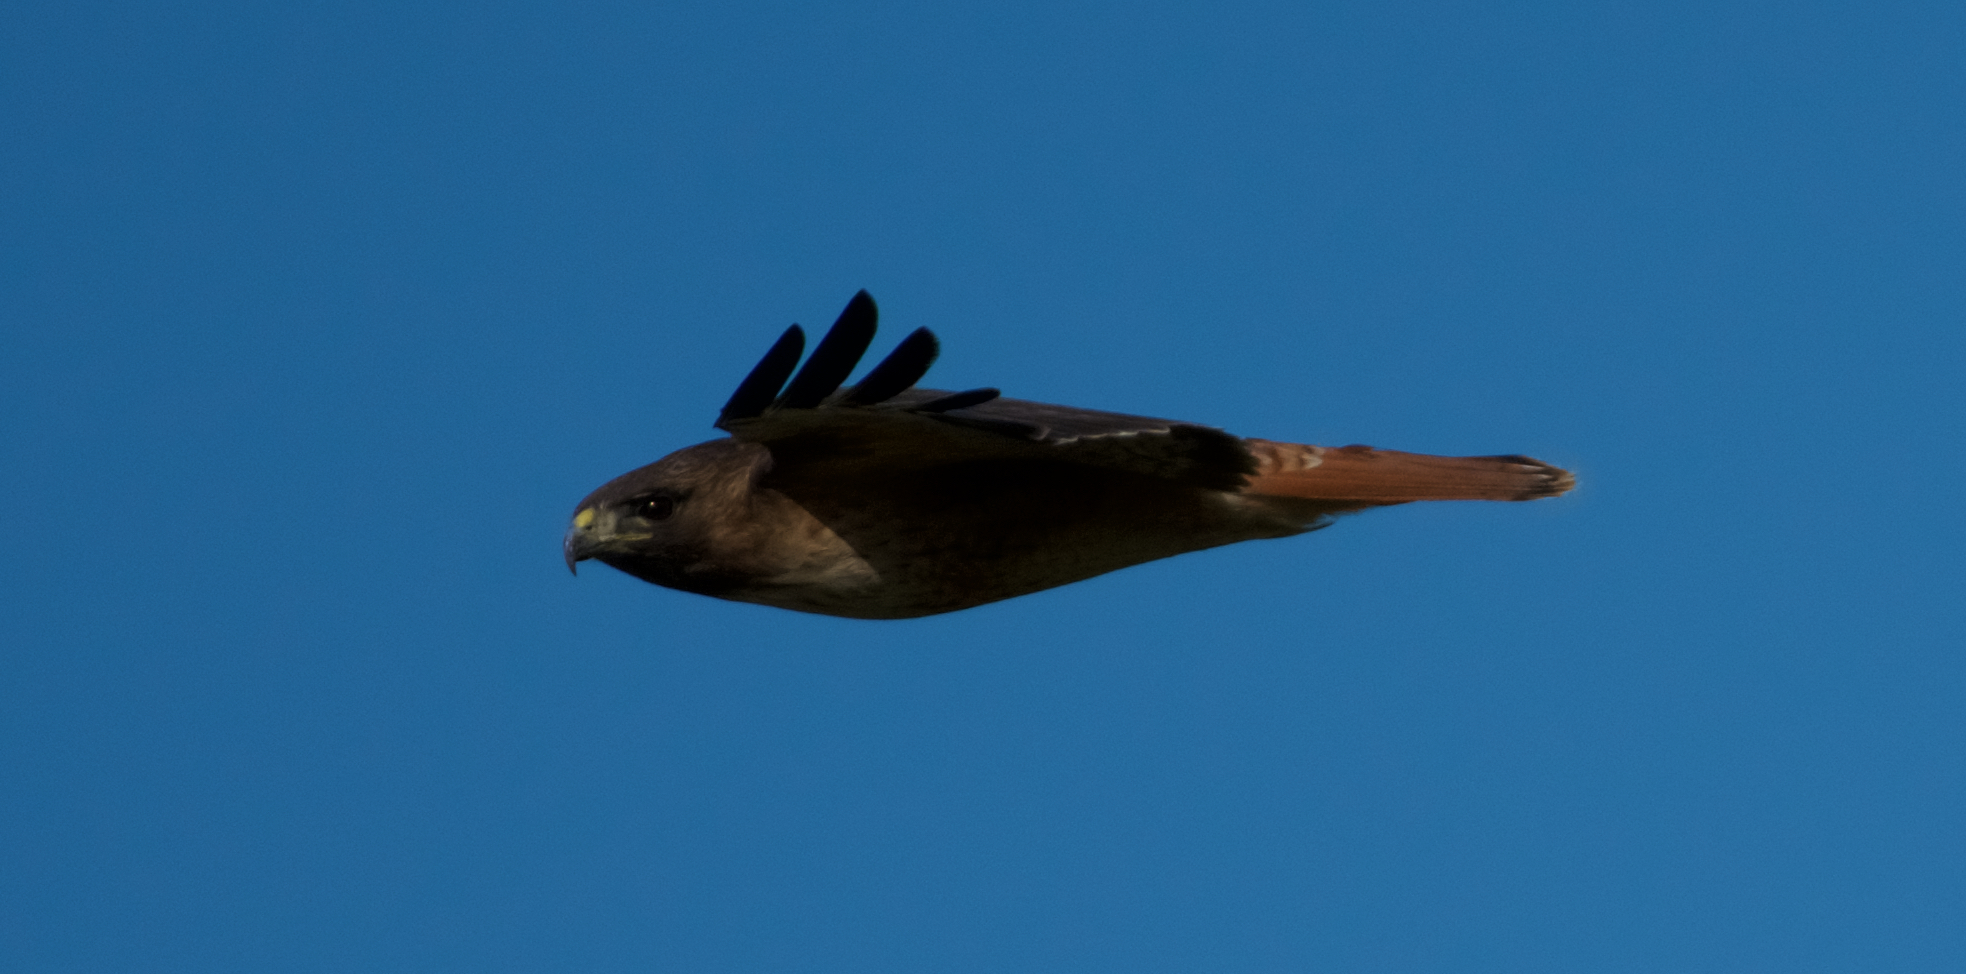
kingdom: Animalia
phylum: Chordata
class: Aves
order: Accipitriformes
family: Accipitridae
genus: Buteo
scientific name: Buteo jamaicensis
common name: Red-tailed hawk
